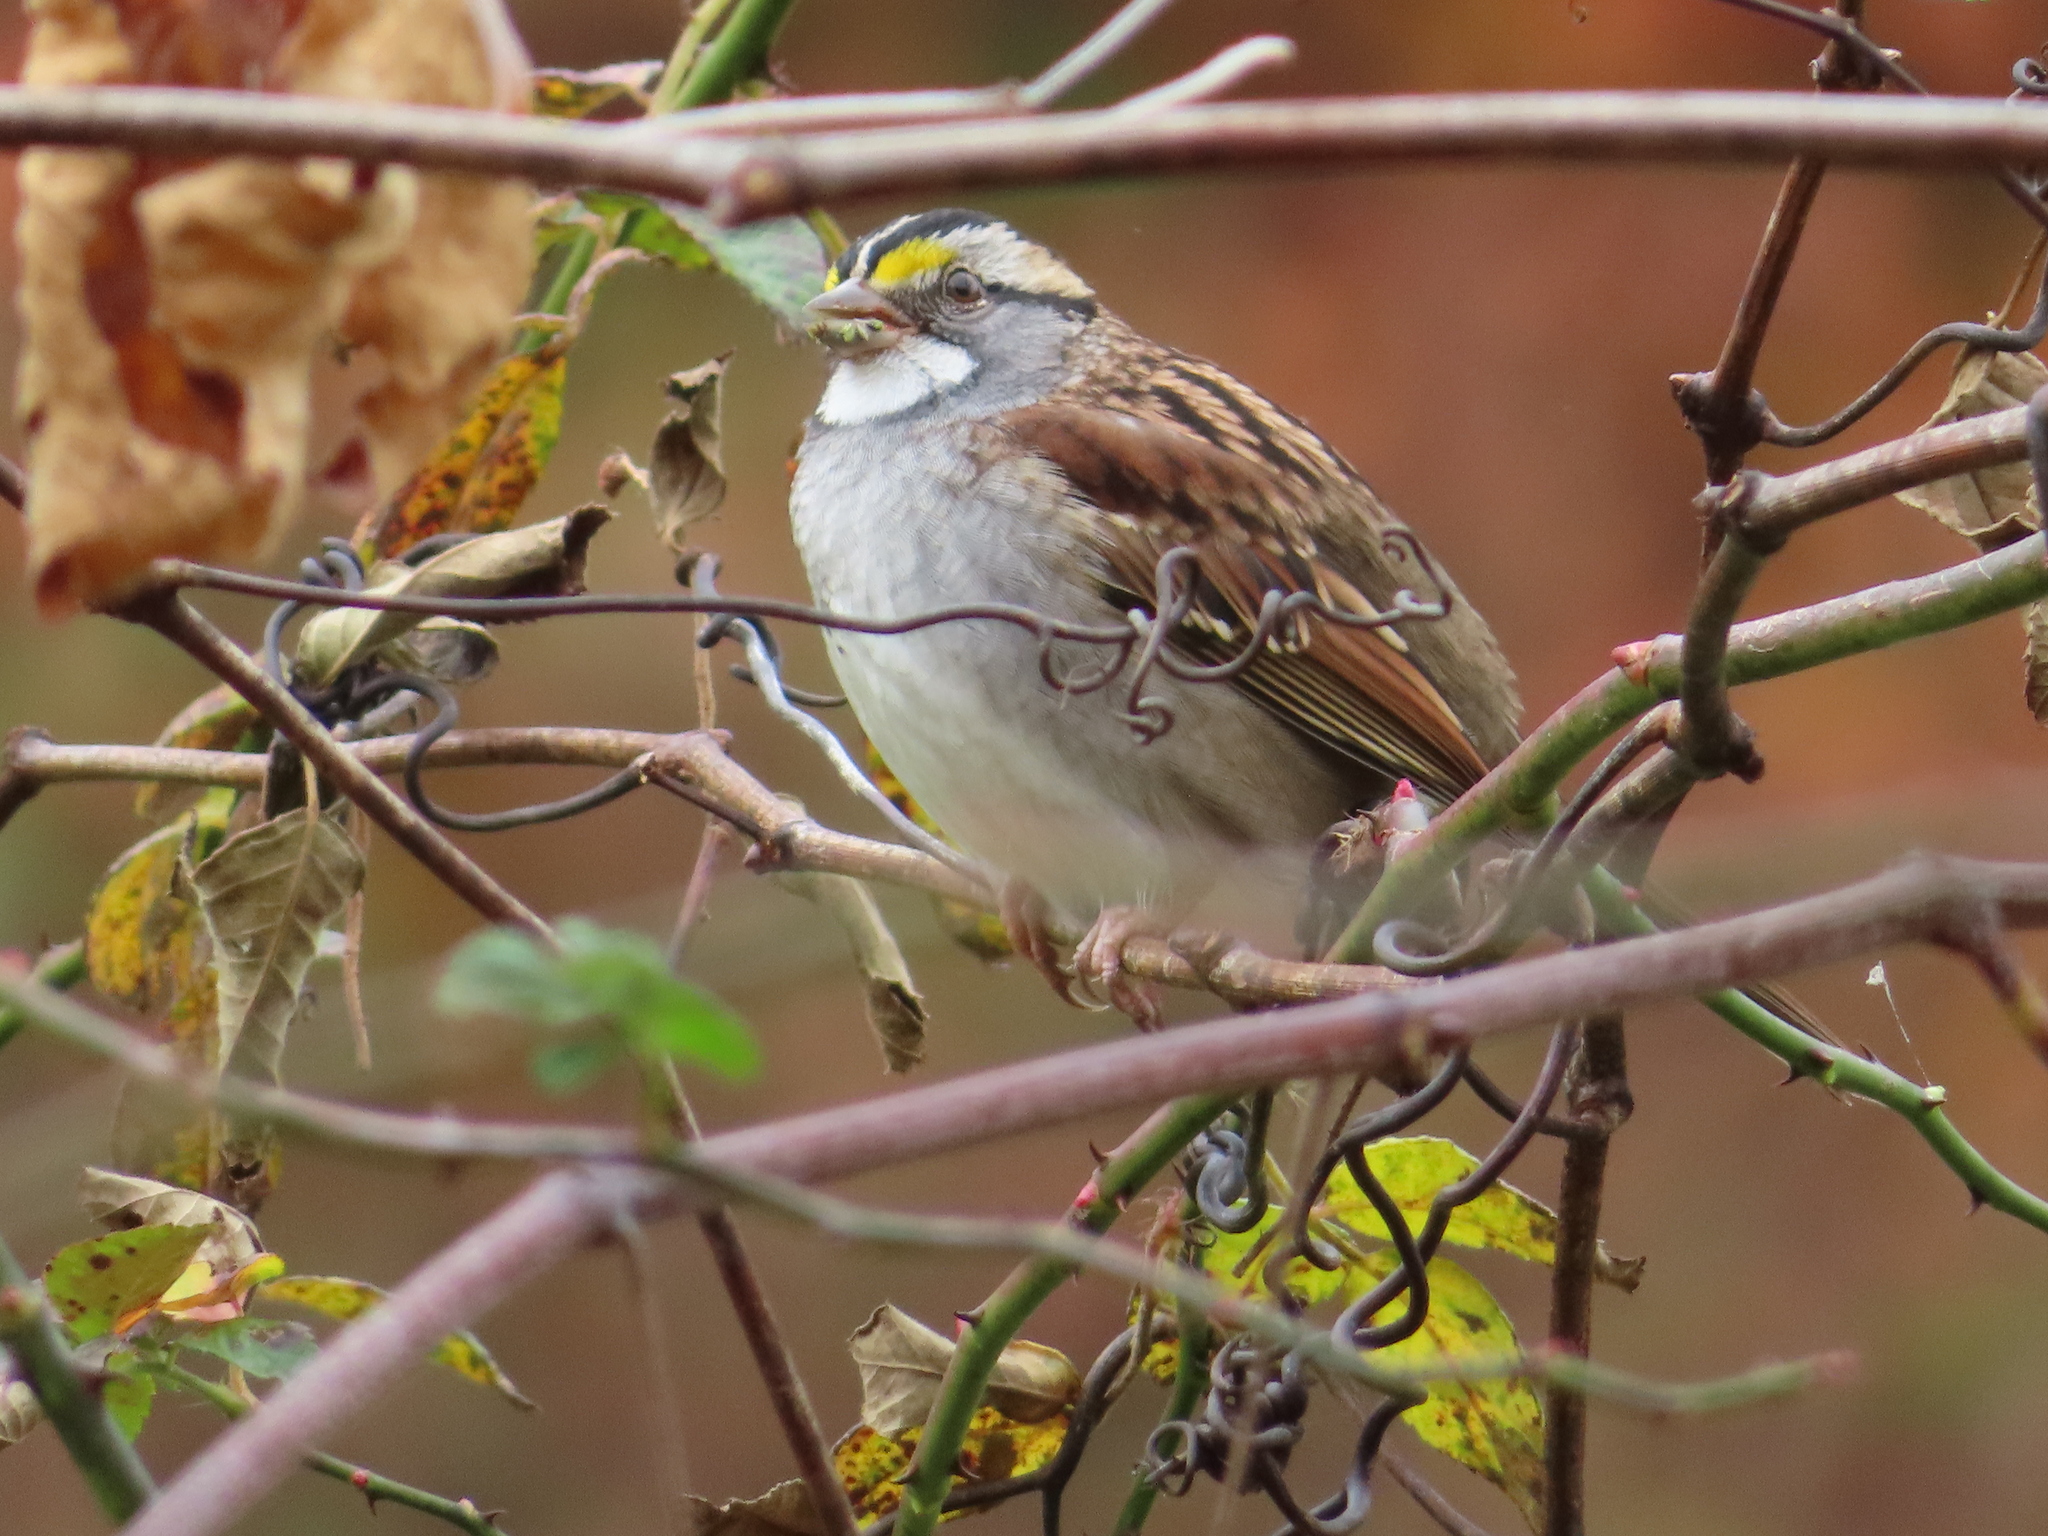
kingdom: Animalia
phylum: Chordata
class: Aves
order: Passeriformes
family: Passerellidae
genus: Zonotrichia
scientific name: Zonotrichia albicollis
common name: White-throated sparrow
